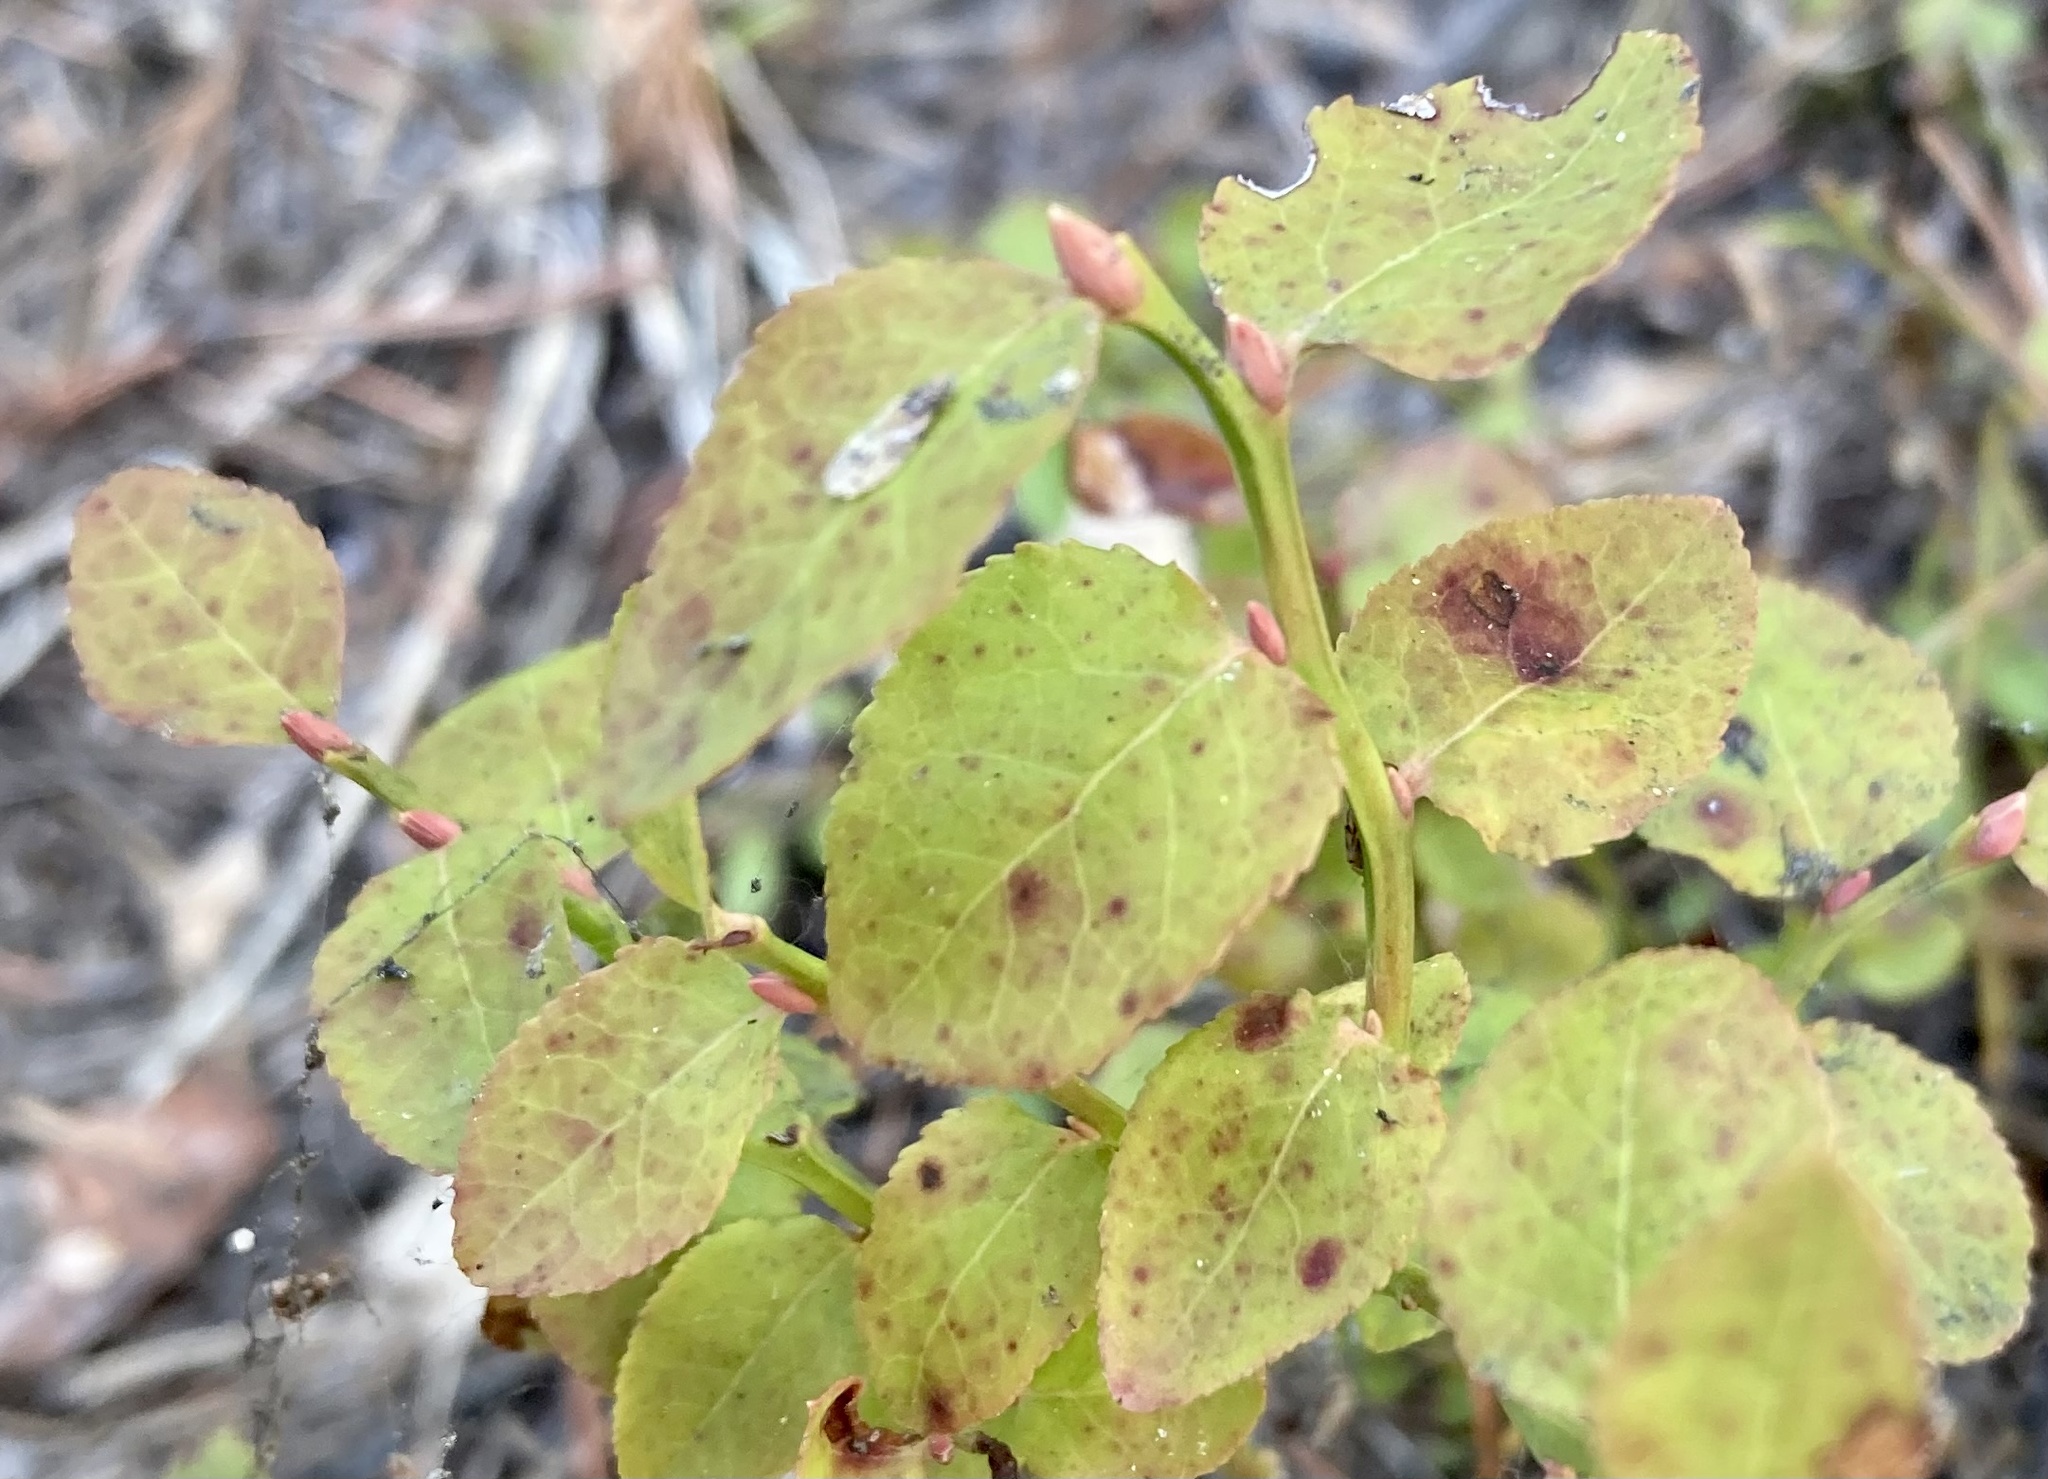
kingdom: Plantae
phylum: Tracheophyta
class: Magnoliopsida
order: Ericales
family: Ericaceae
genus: Vaccinium
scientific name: Vaccinium scoparium
